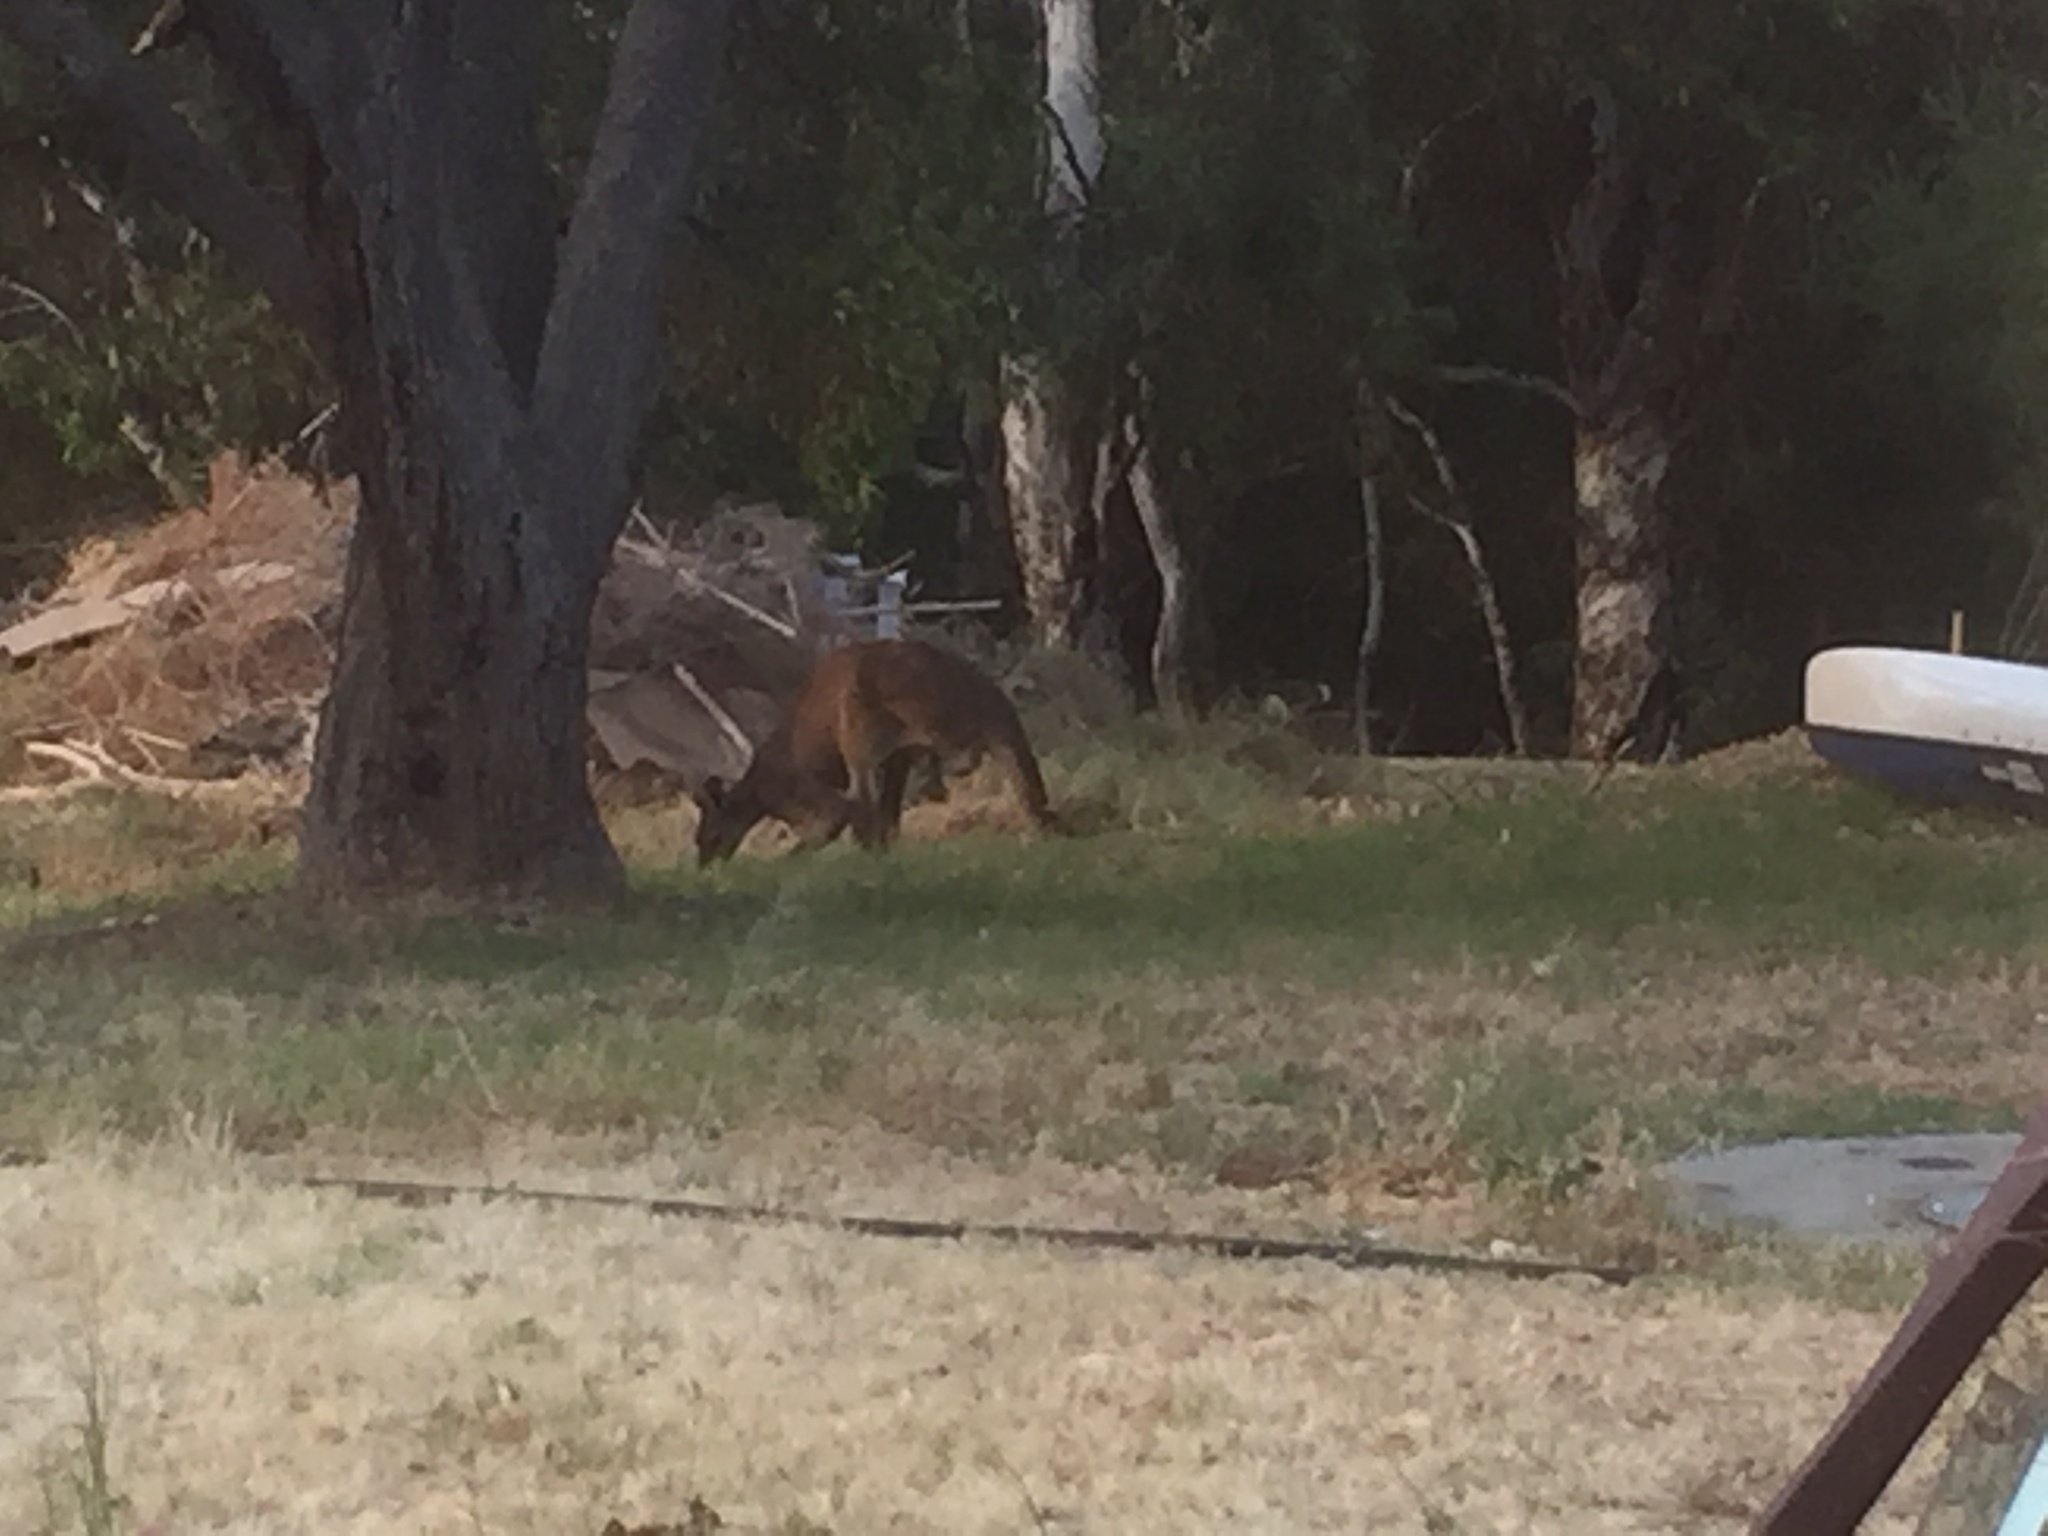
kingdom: Animalia
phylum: Chordata
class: Mammalia
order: Diprotodontia
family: Macropodidae
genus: Macropus
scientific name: Macropus fuliginosus
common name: Western grey kangaroo
